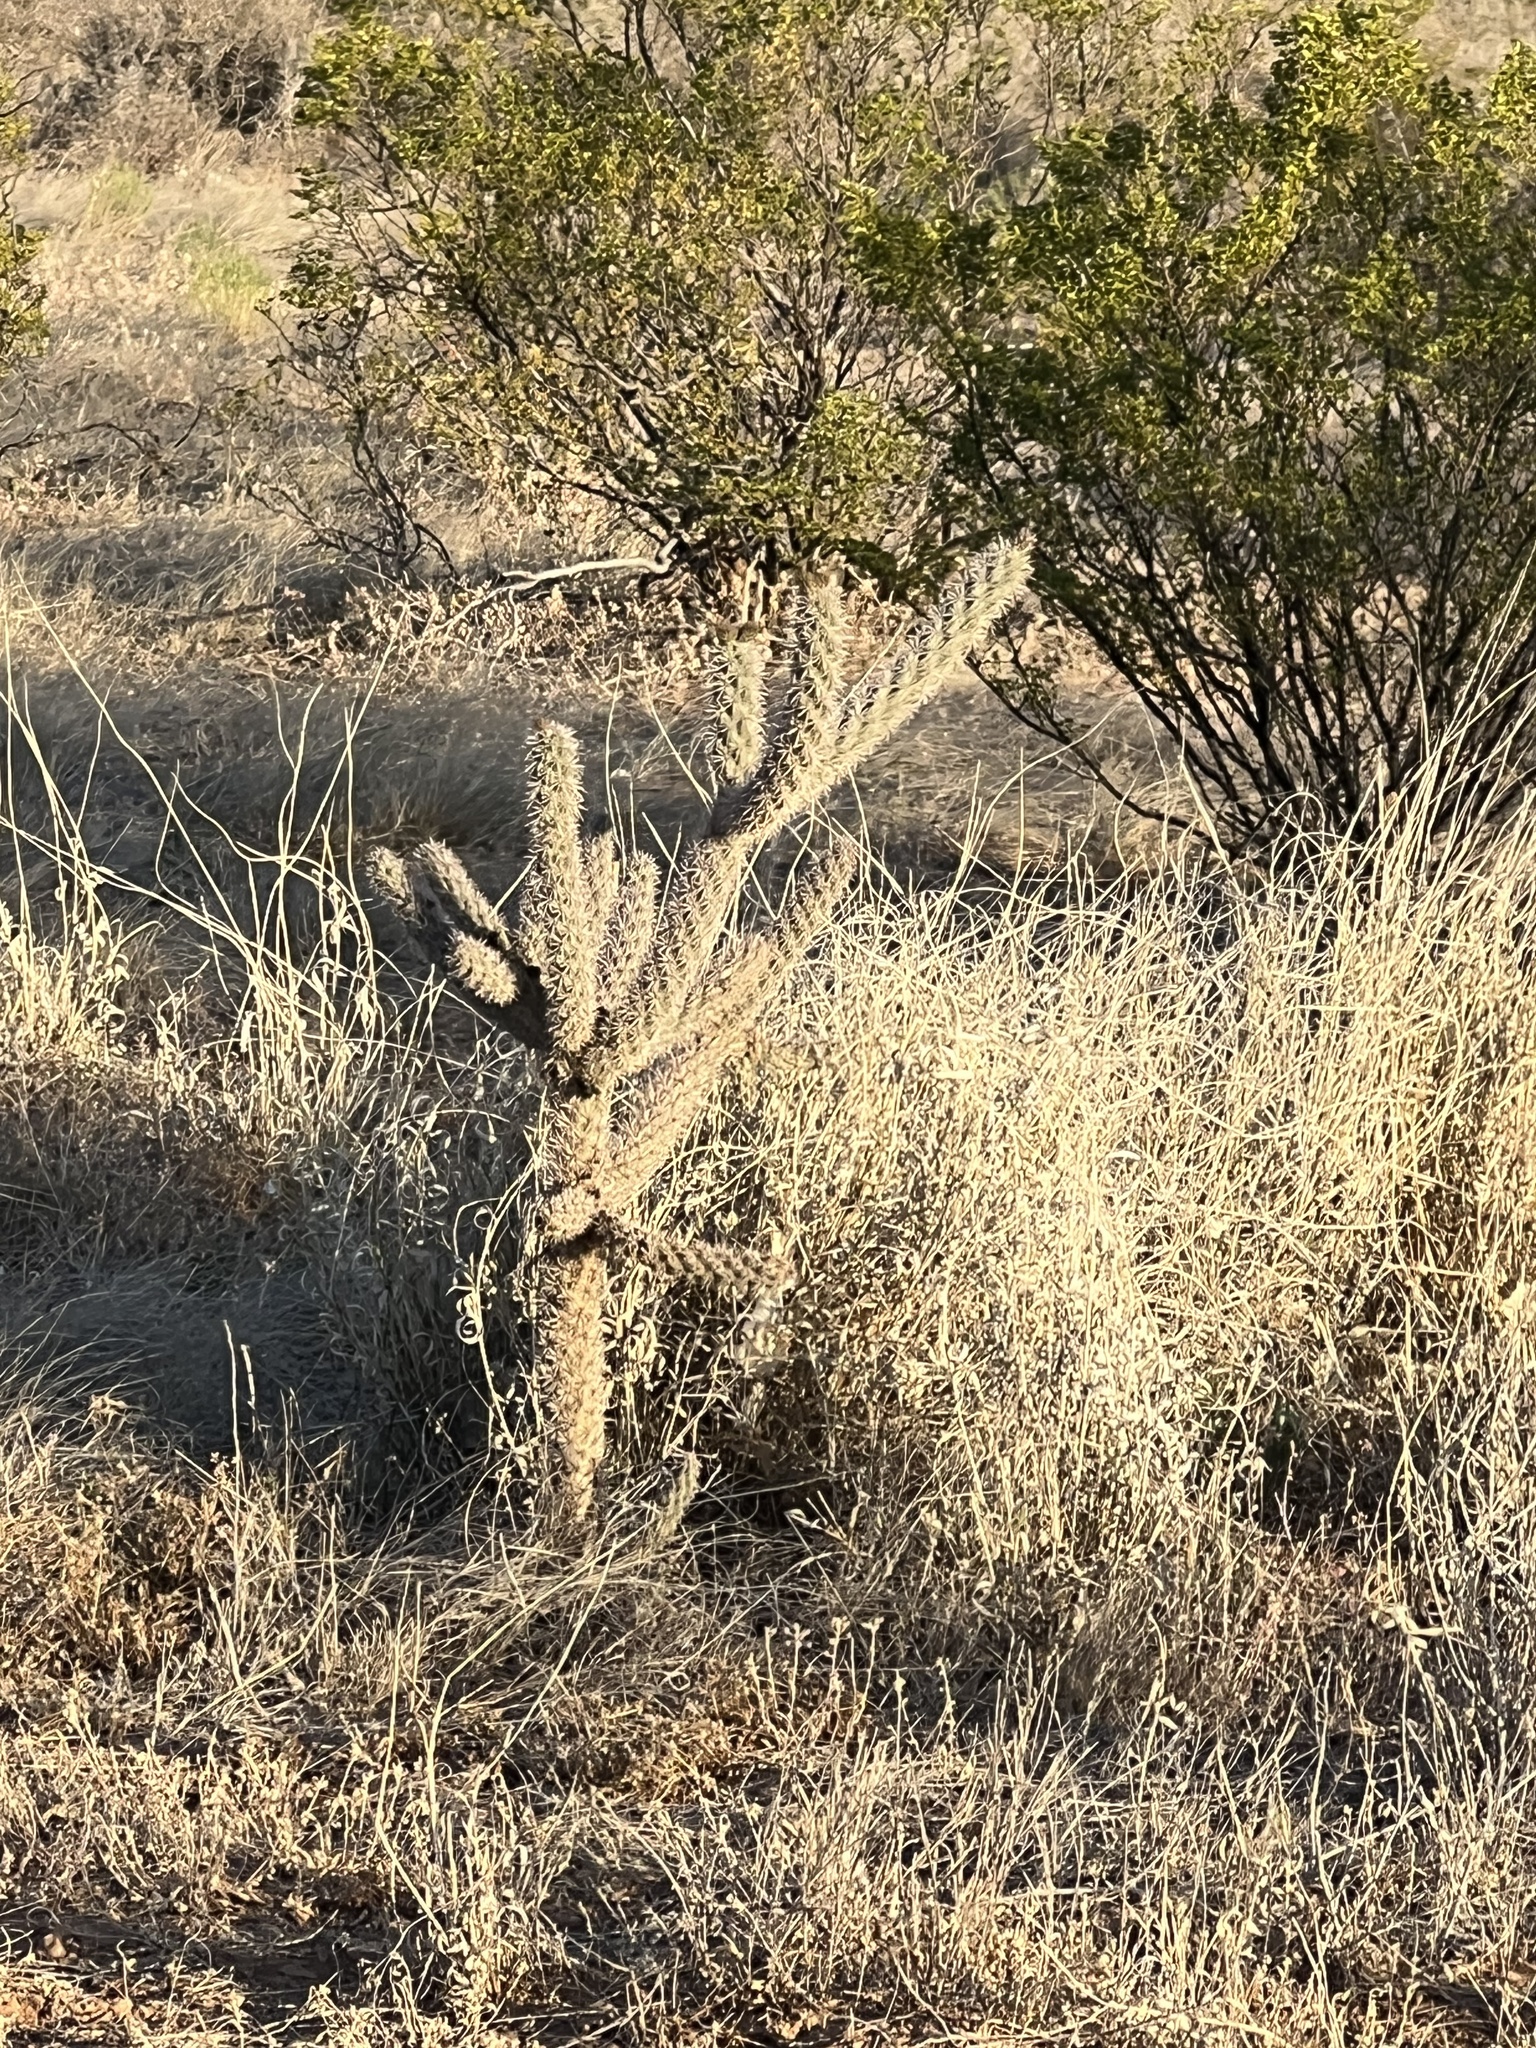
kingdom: Plantae
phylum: Tracheophyta
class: Magnoliopsida
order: Caryophyllales
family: Cactaceae
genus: Cylindropuntia
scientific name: Cylindropuntia imbricata
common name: Candelabrum cactus
